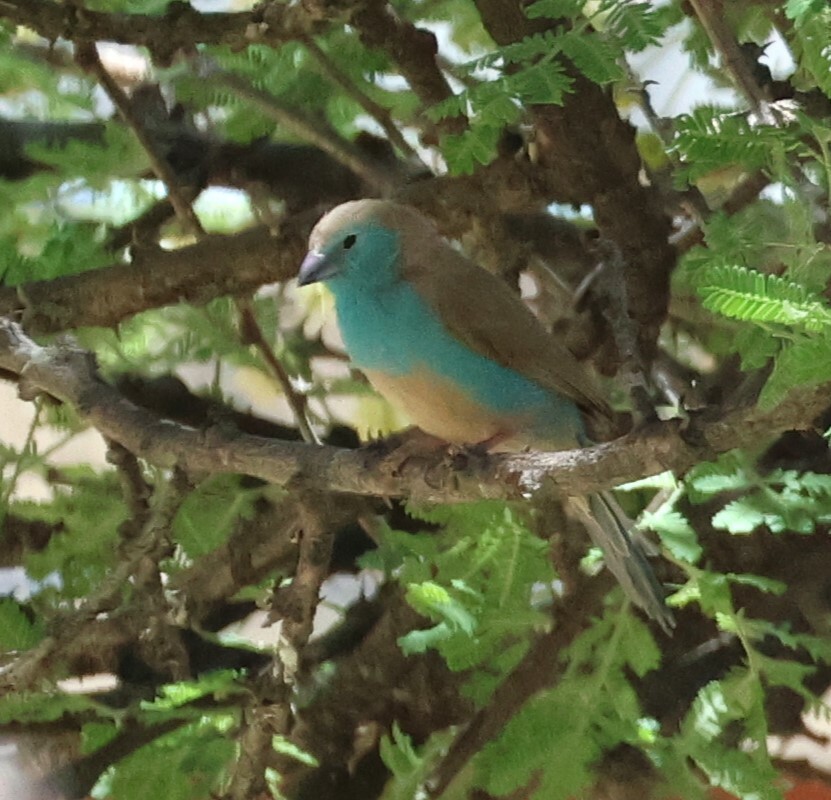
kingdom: Animalia
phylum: Chordata
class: Aves
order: Passeriformes
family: Estrildidae
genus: Uraeginthus
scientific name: Uraeginthus angolensis
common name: Blue waxbill
